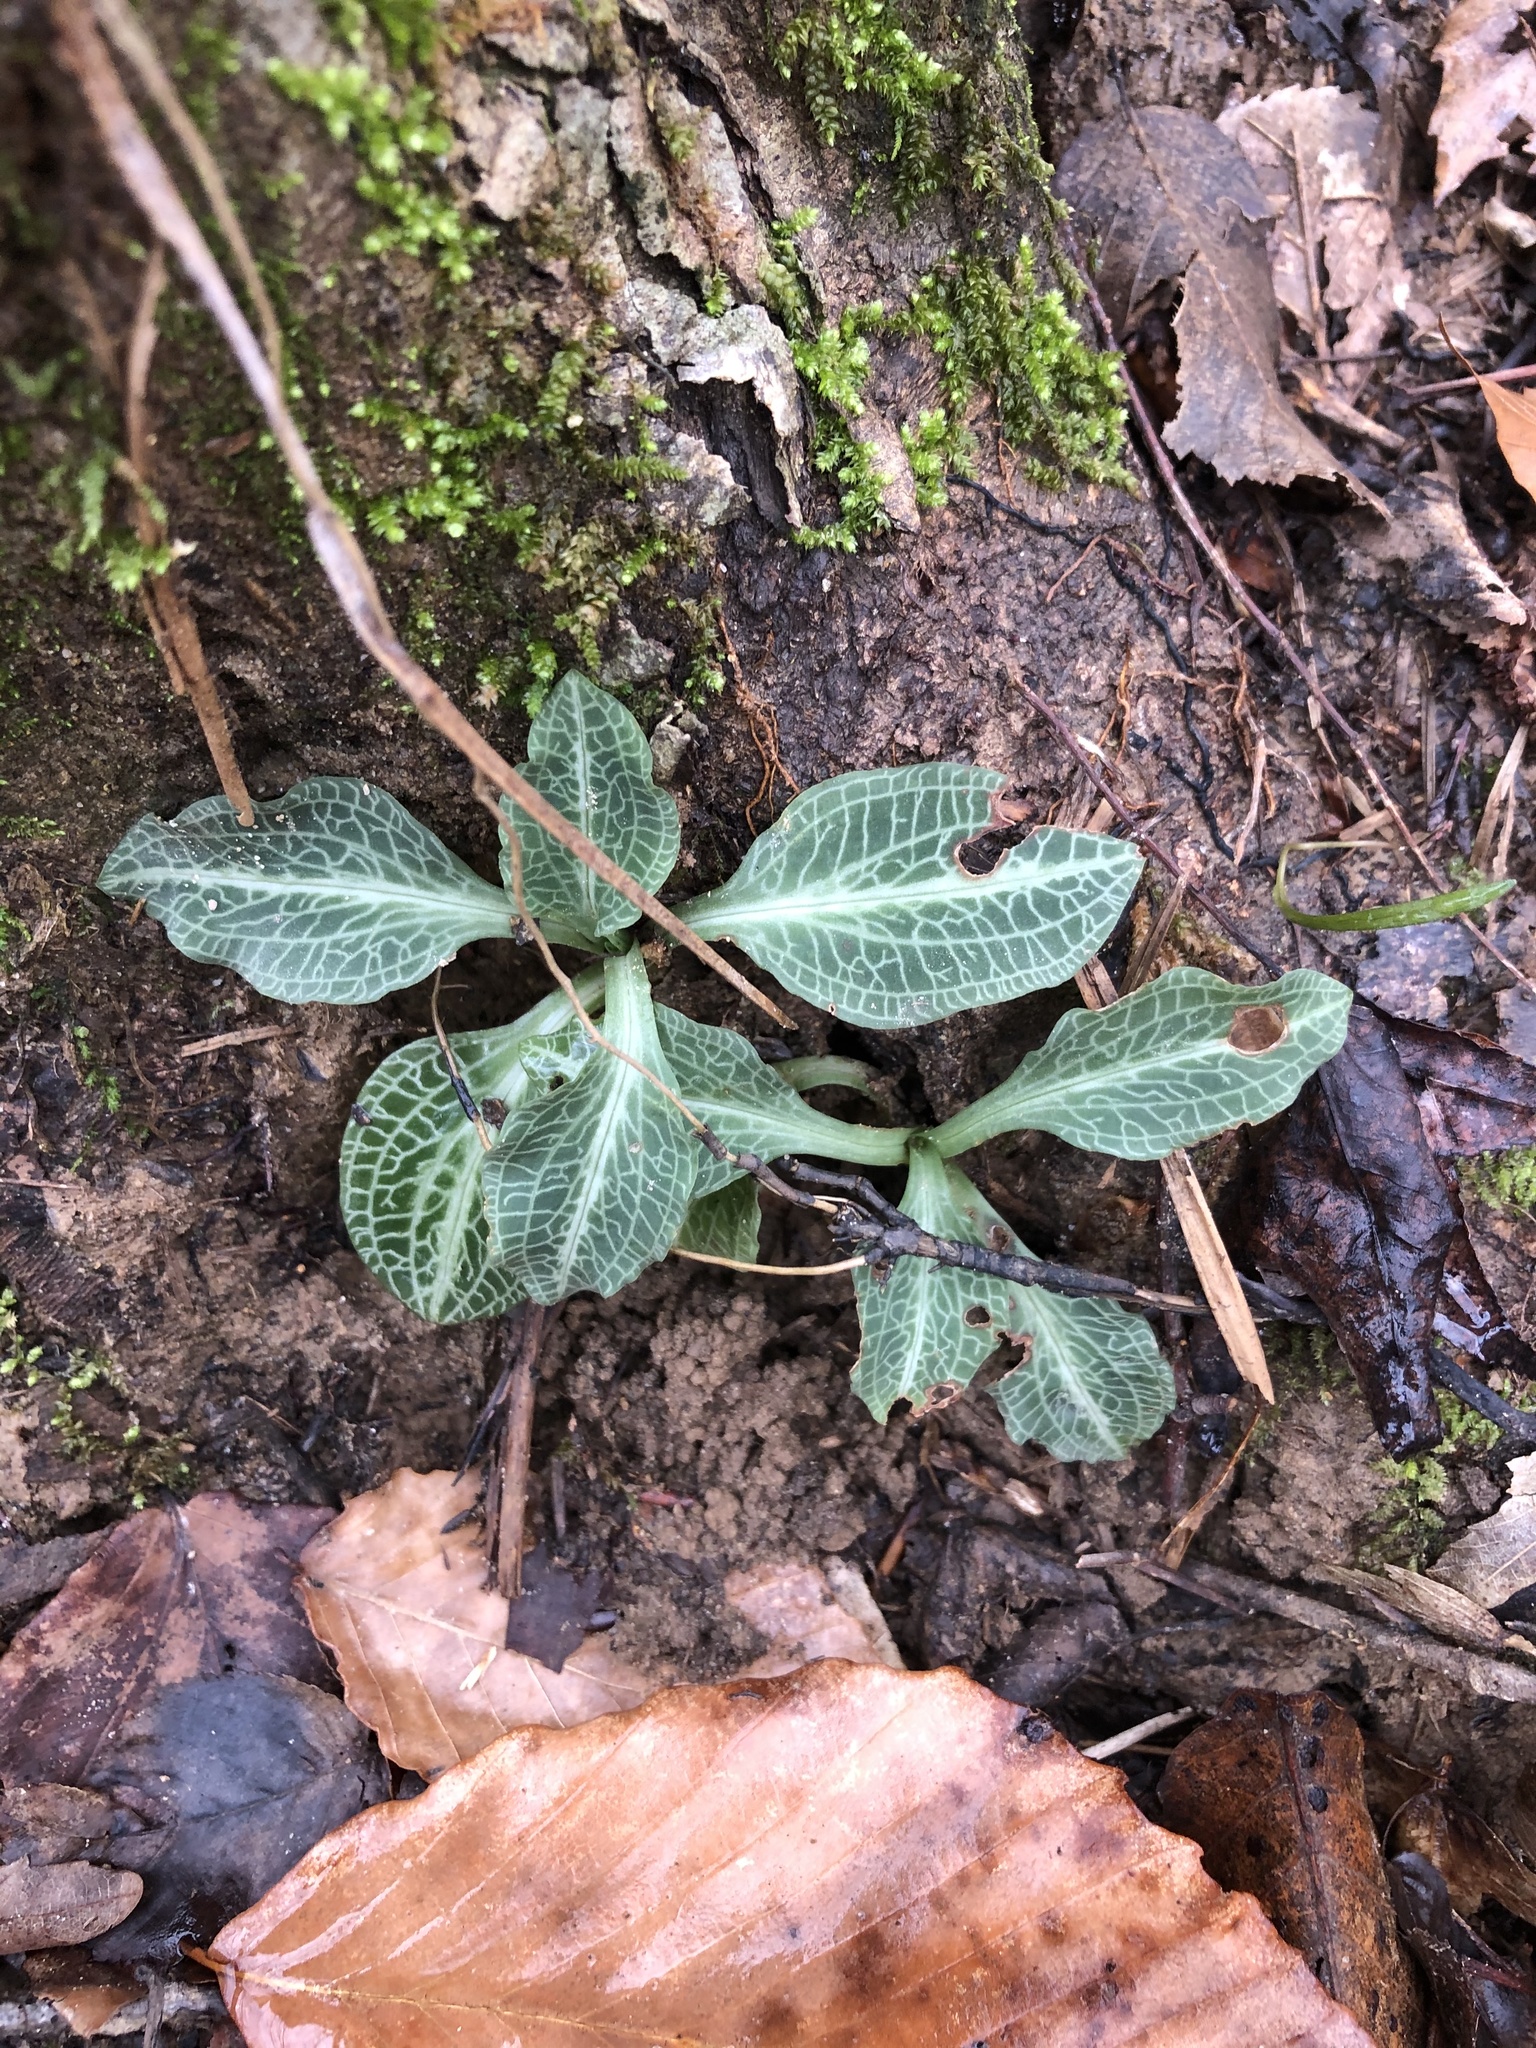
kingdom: Plantae
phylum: Tracheophyta
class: Liliopsida
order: Asparagales
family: Orchidaceae
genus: Goodyera
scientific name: Goodyera pubescens
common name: Downy rattlesnake-plantain
